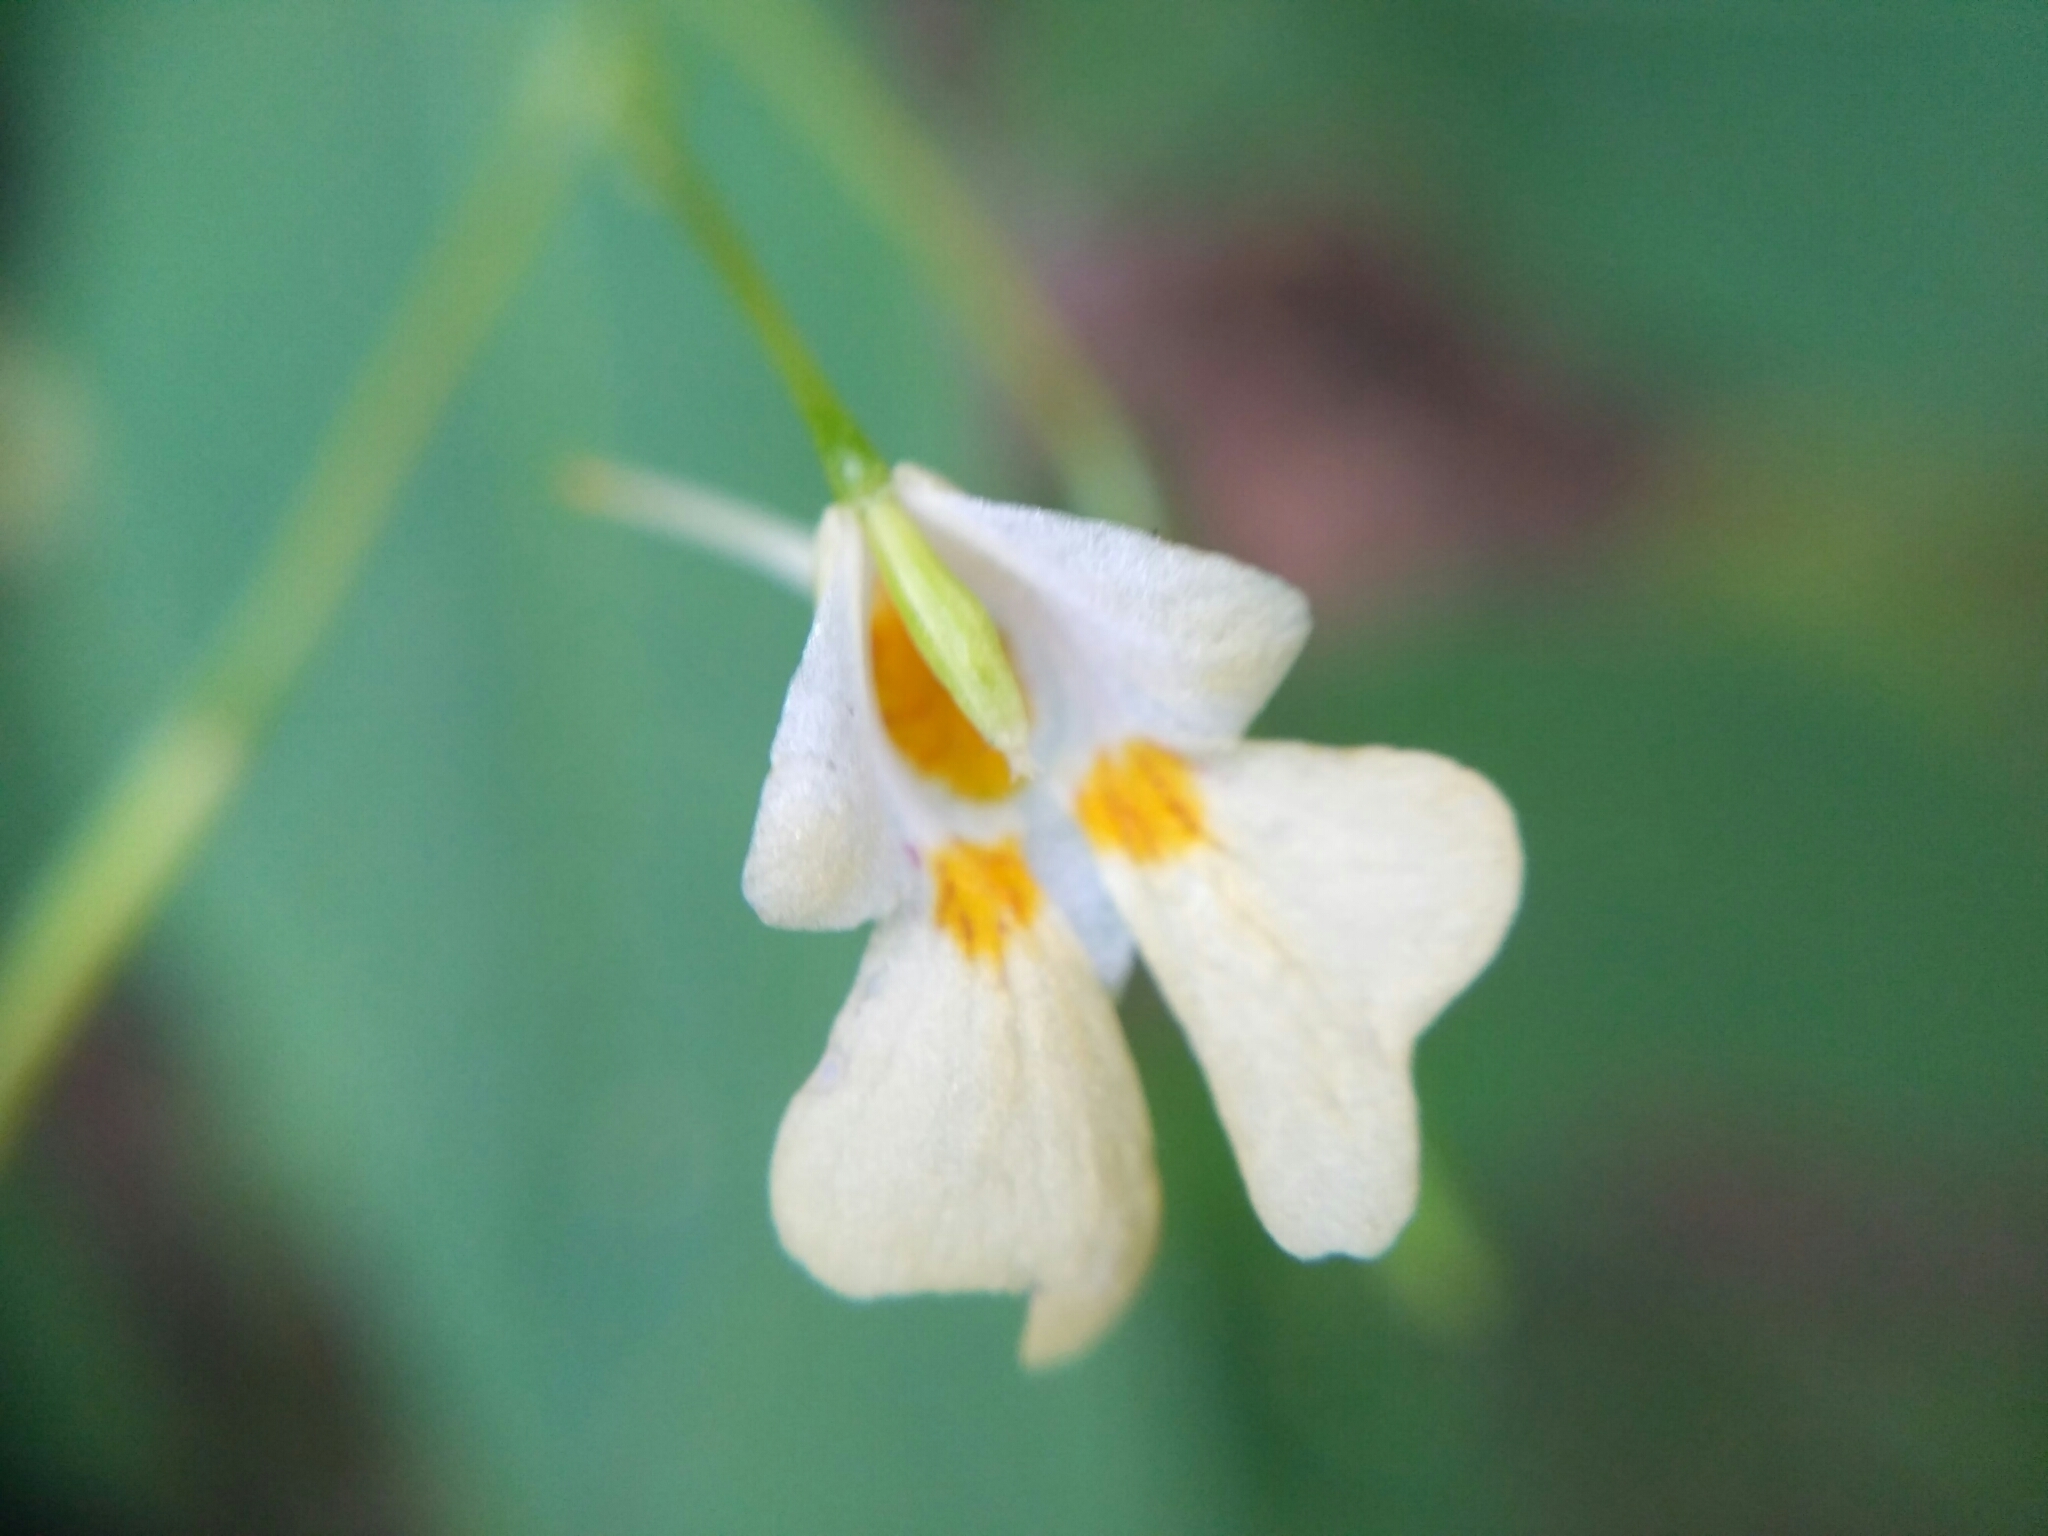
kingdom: Plantae
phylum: Tracheophyta
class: Magnoliopsida
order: Ericales
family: Balsaminaceae
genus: Impatiens
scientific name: Impatiens parviflora
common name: Small balsam
